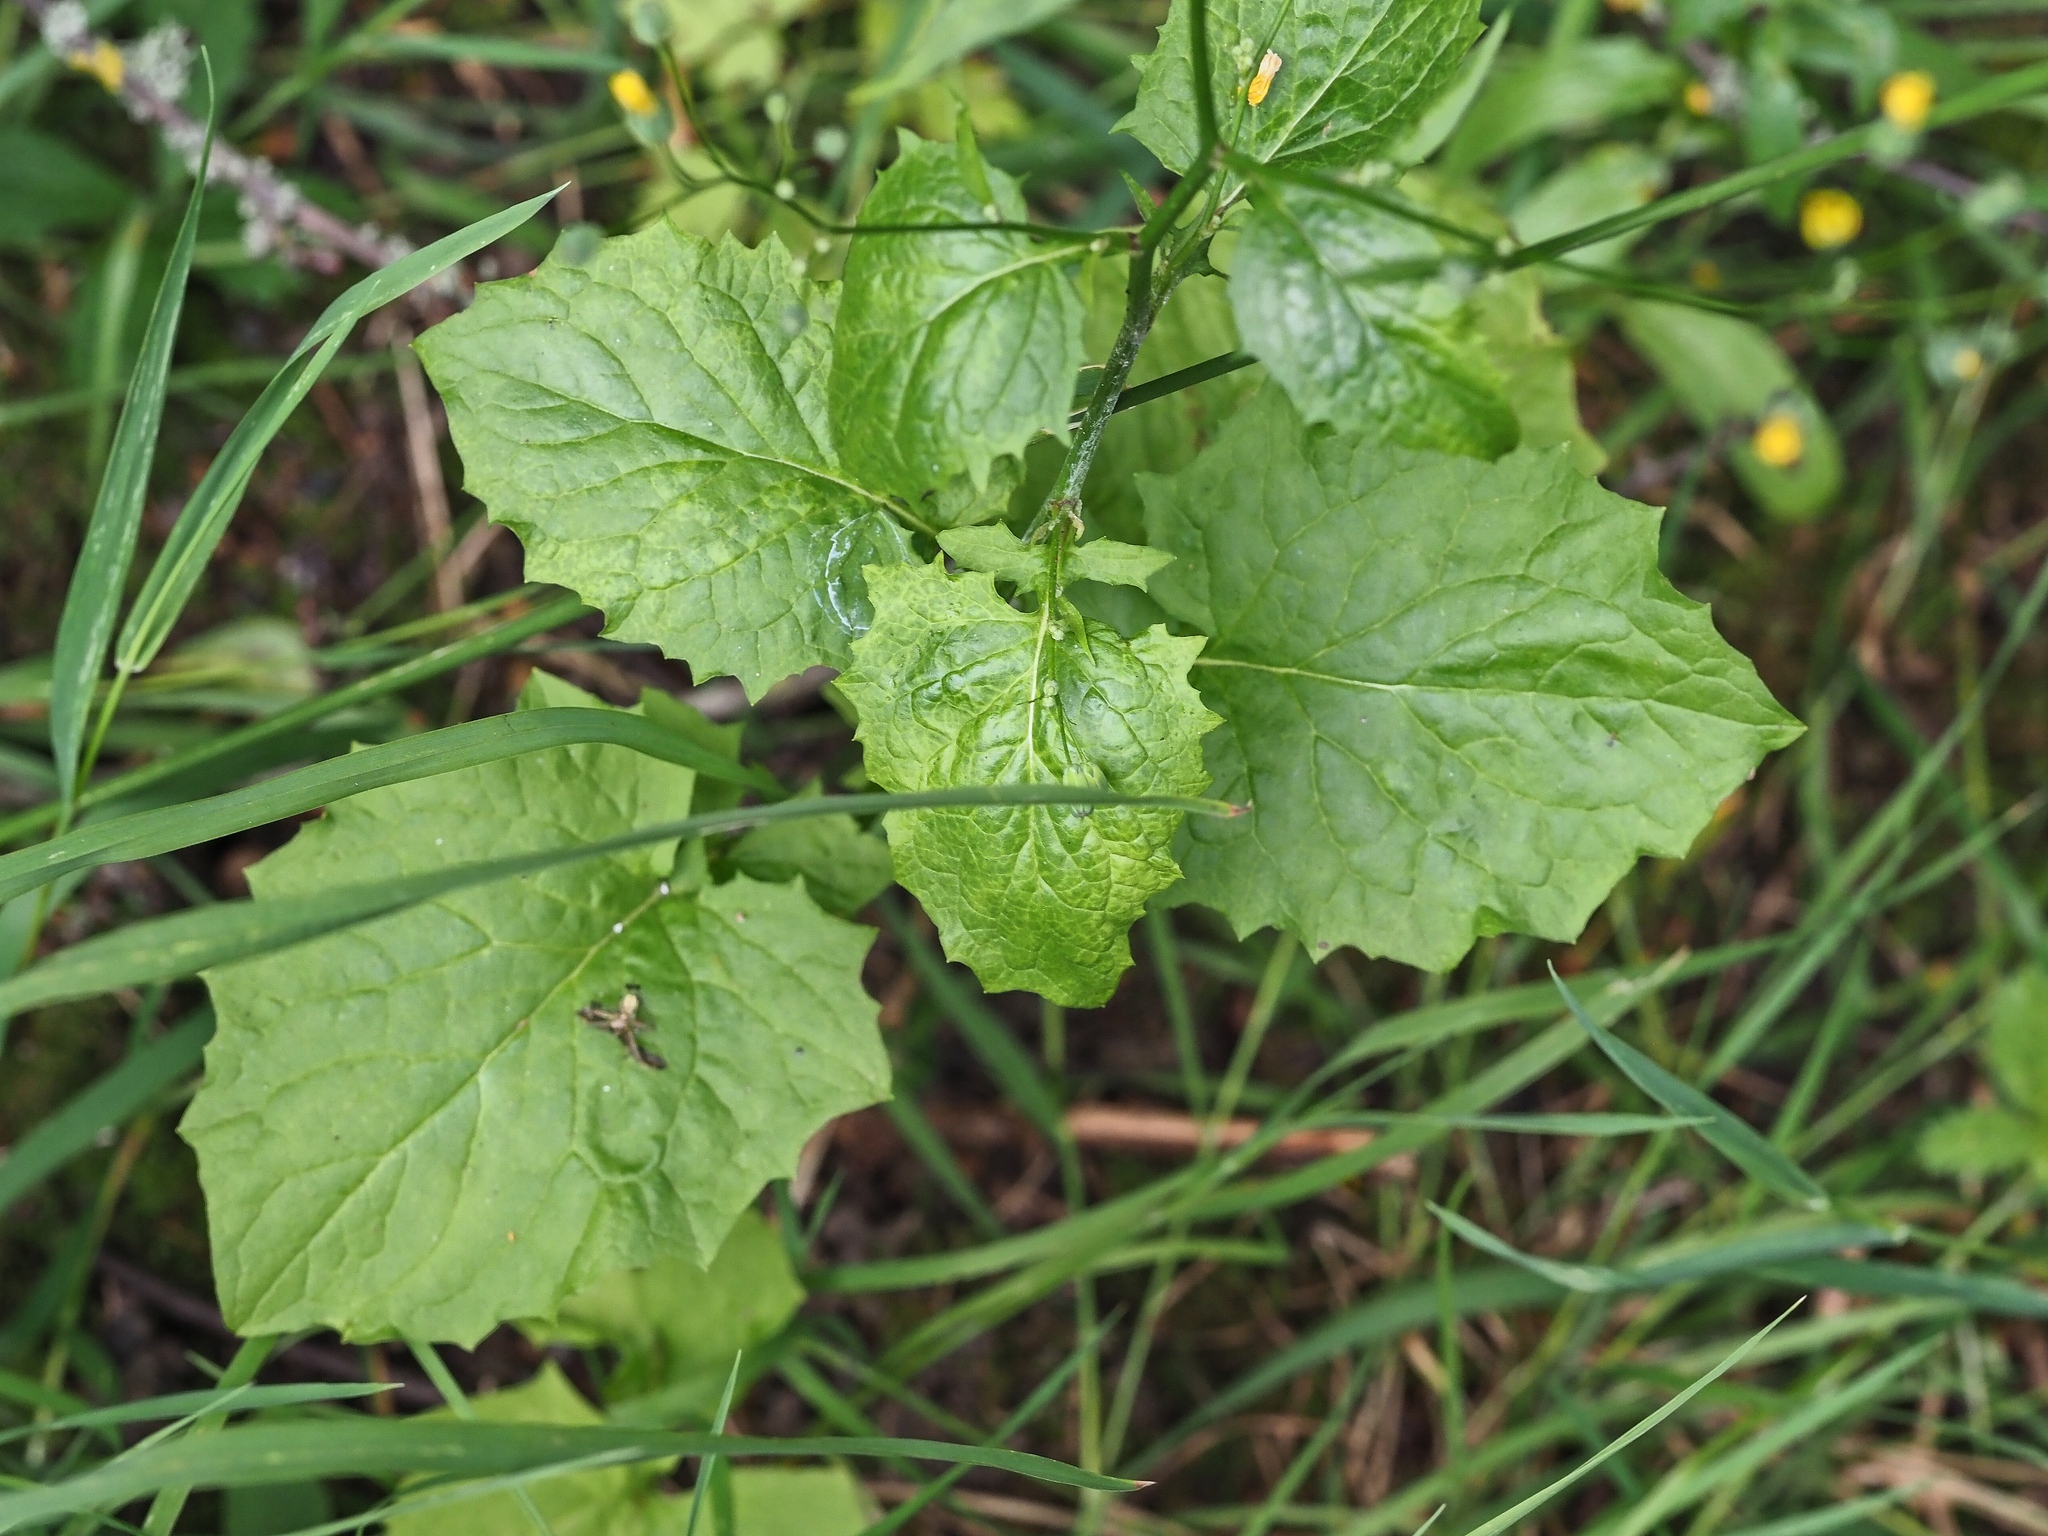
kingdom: Plantae
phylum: Tracheophyta
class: Magnoliopsida
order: Asterales
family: Asteraceae
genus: Lapsana
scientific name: Lapsana communis
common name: Nipplewort
